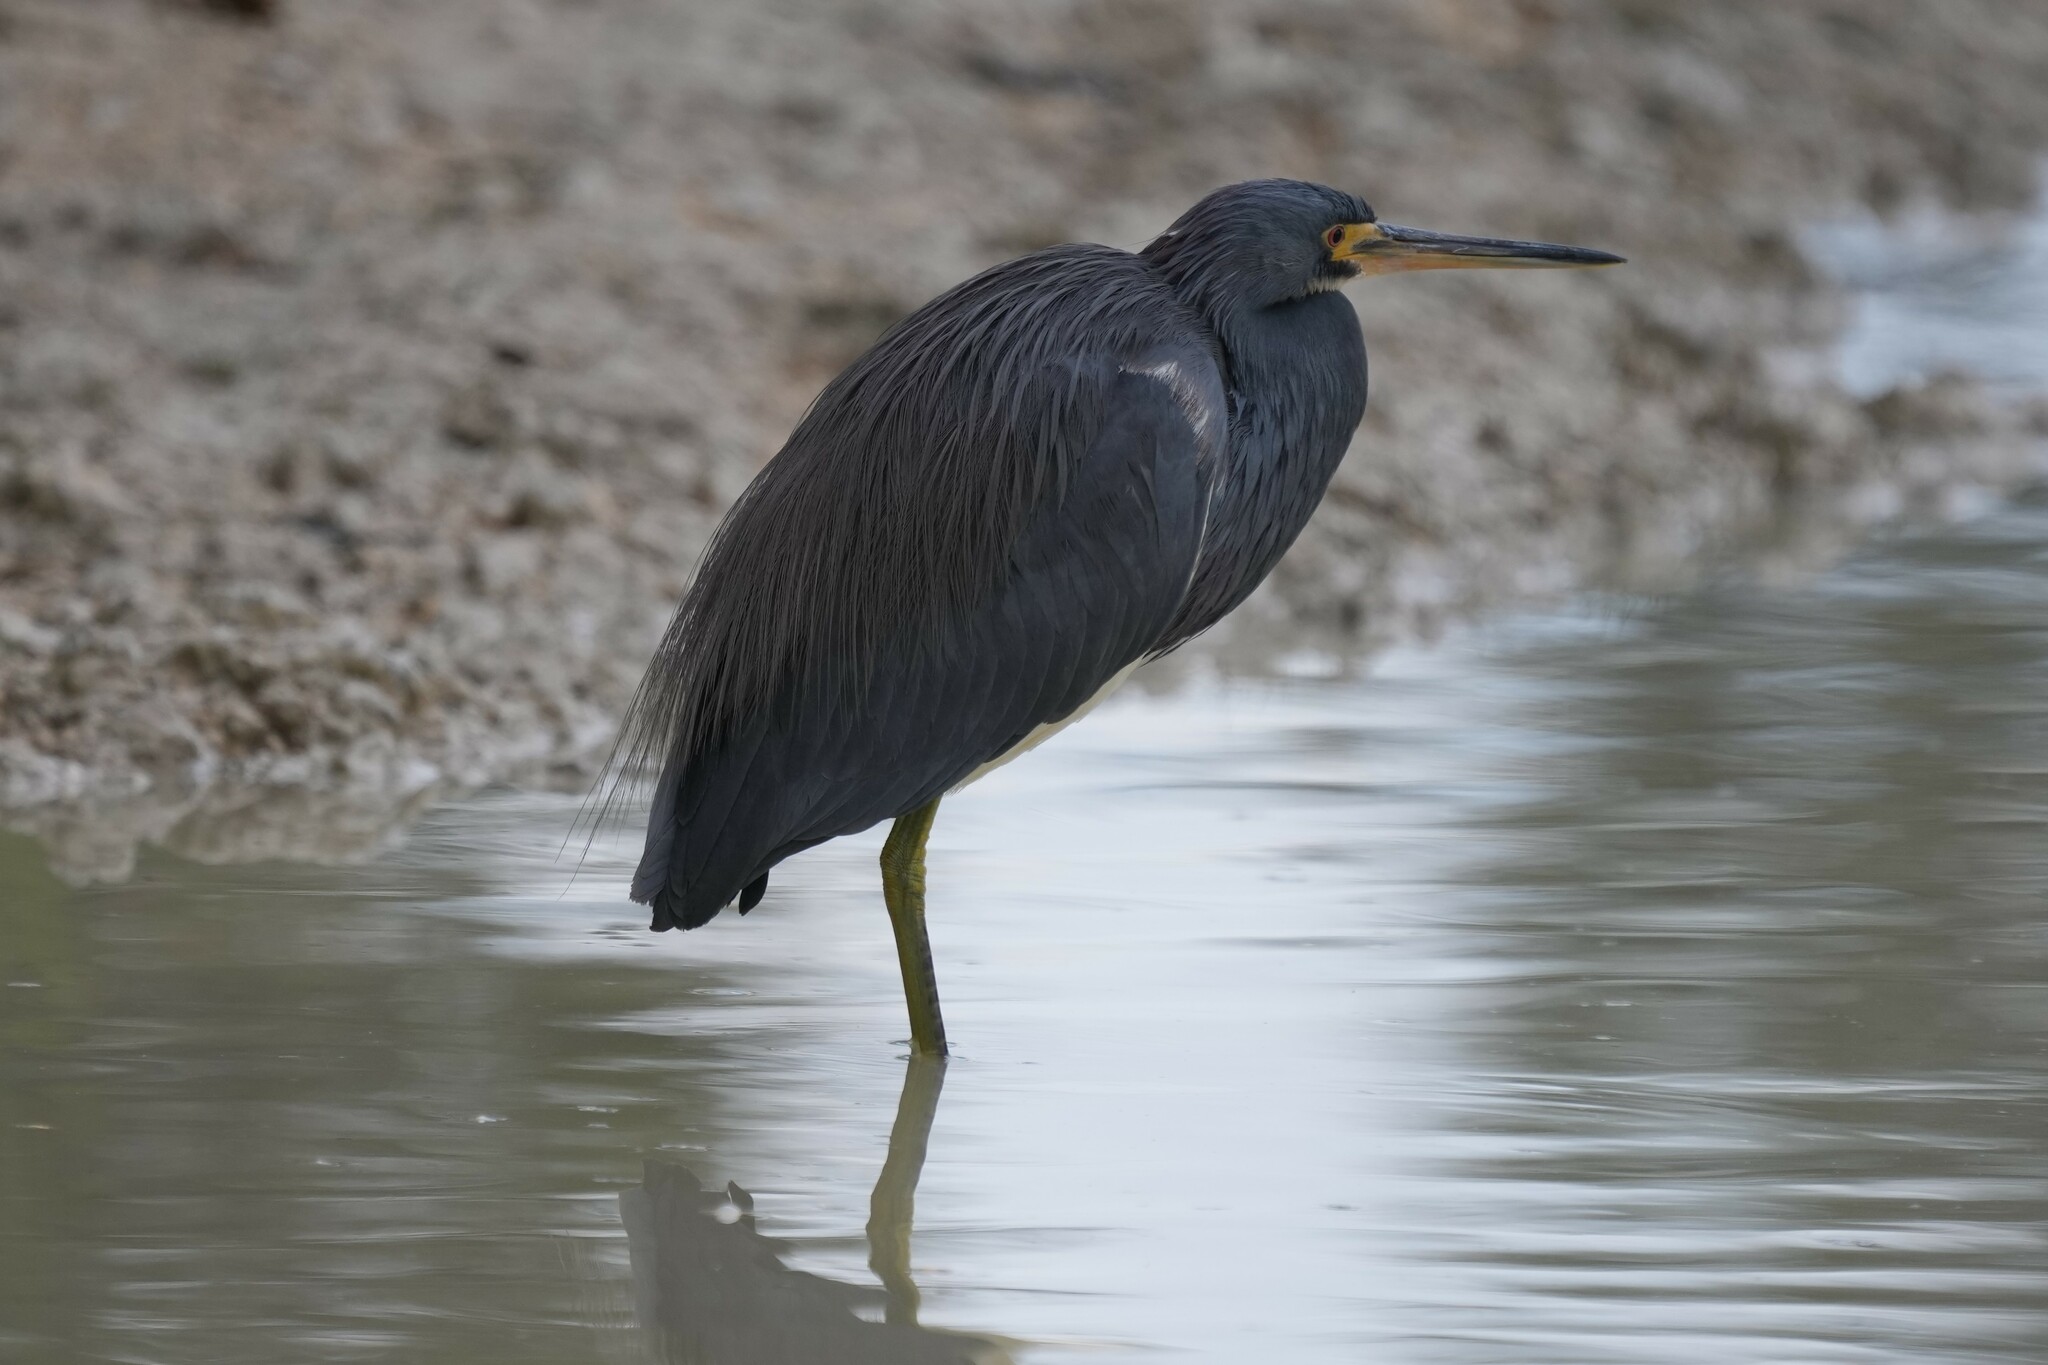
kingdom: Animalia
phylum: Chordata
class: Aves
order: Pelecaniformes
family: Ardeidae
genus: Egretta
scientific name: Egretta tricolor
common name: Tricolored heron
